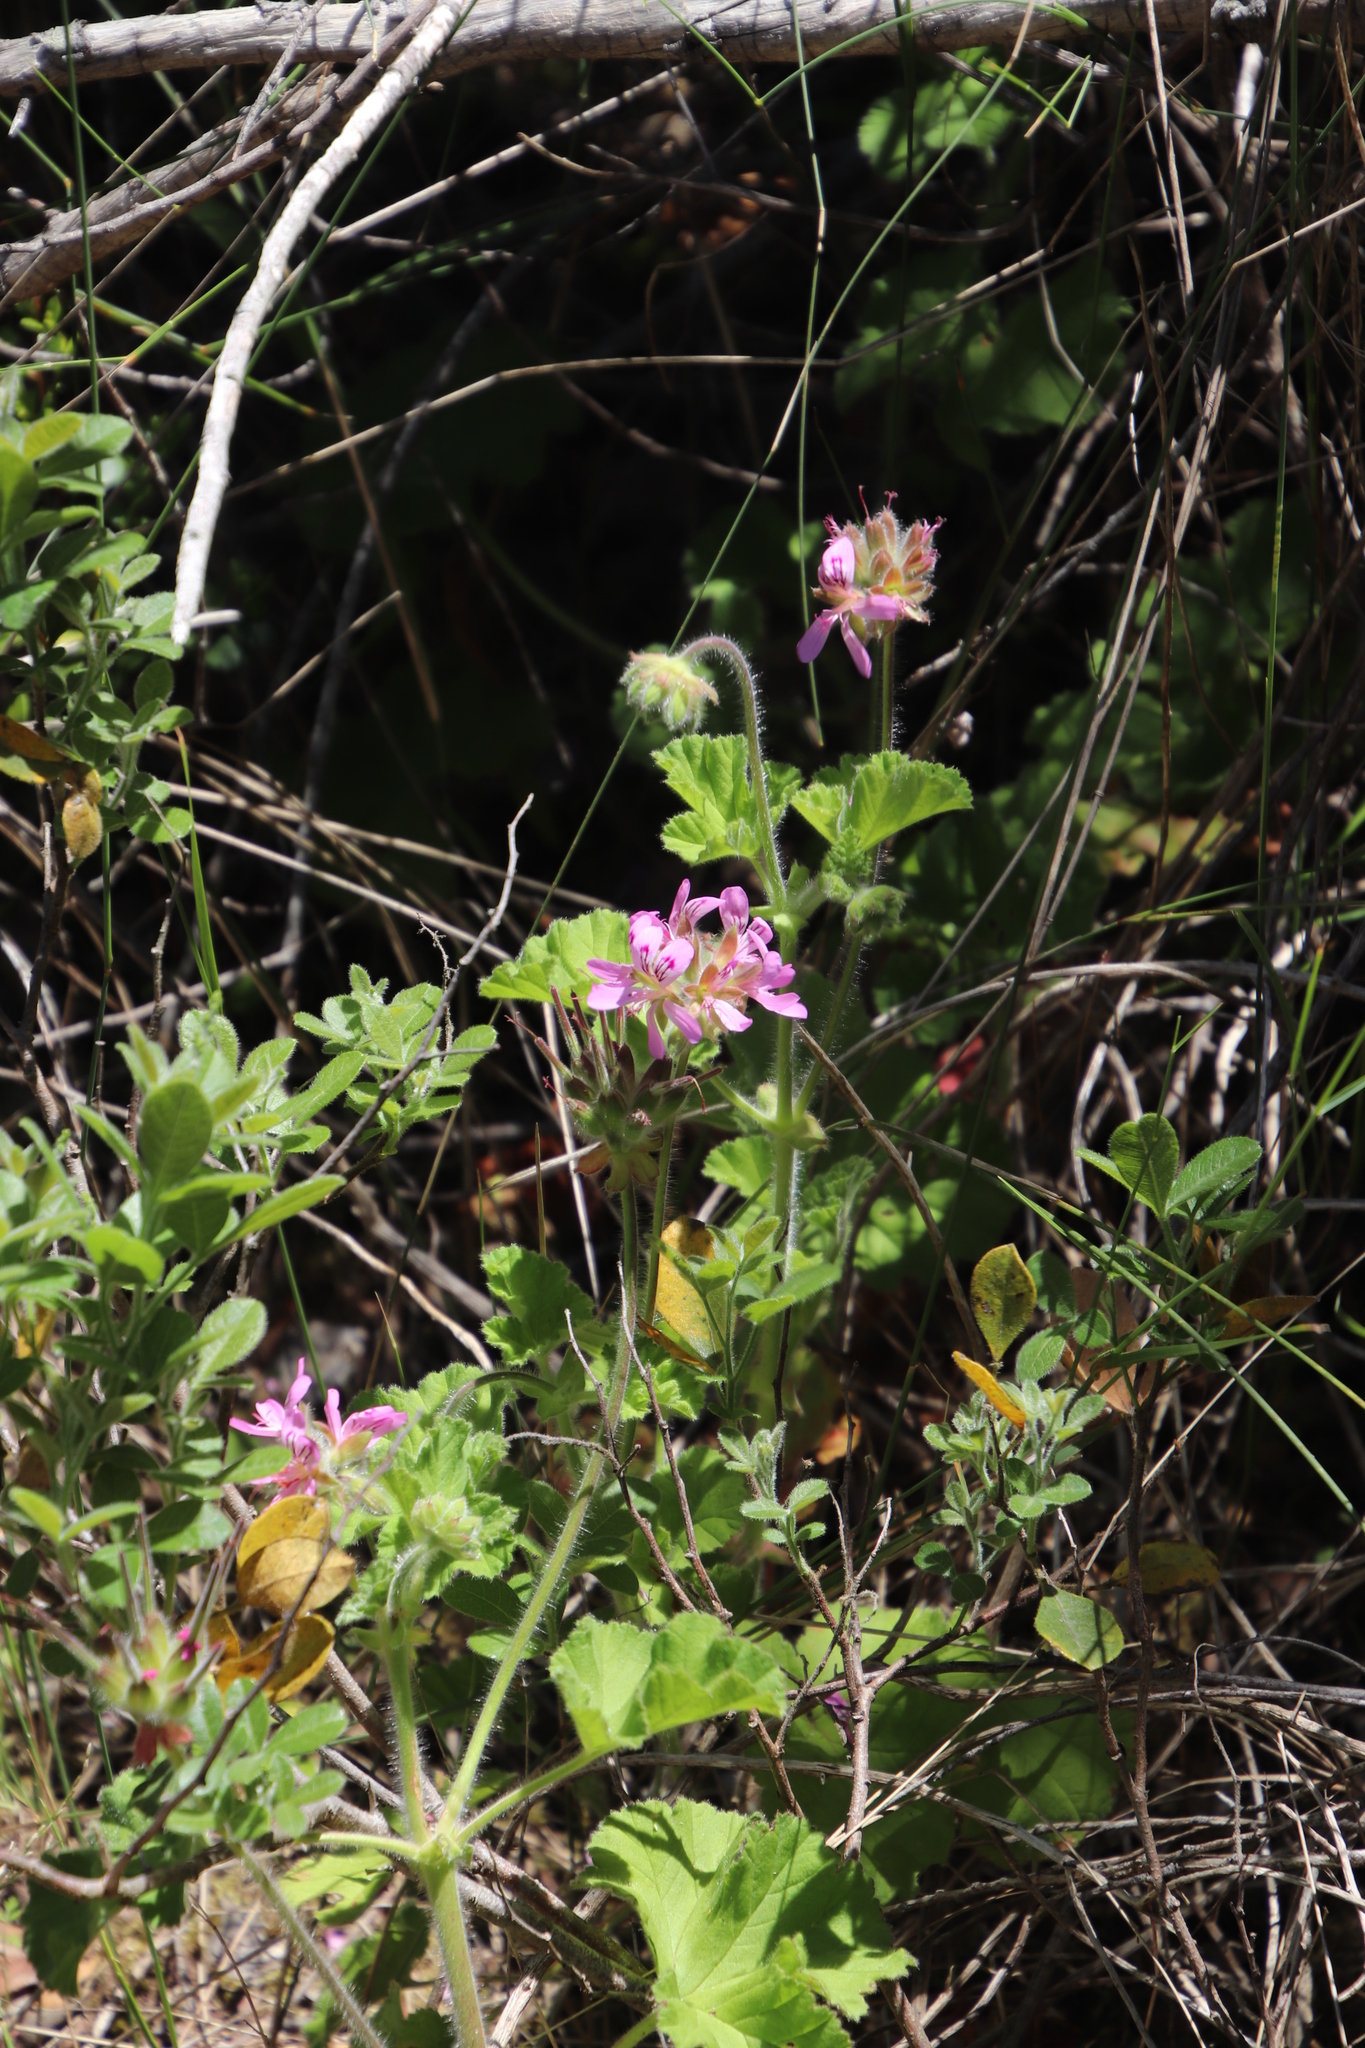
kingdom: Plantae
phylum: Tracheophyta
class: Magnoliopsida
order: Geraniales
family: Geraniaceae
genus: Pelargonium
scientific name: Pelargonium capitatum
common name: Rose scented geranium
